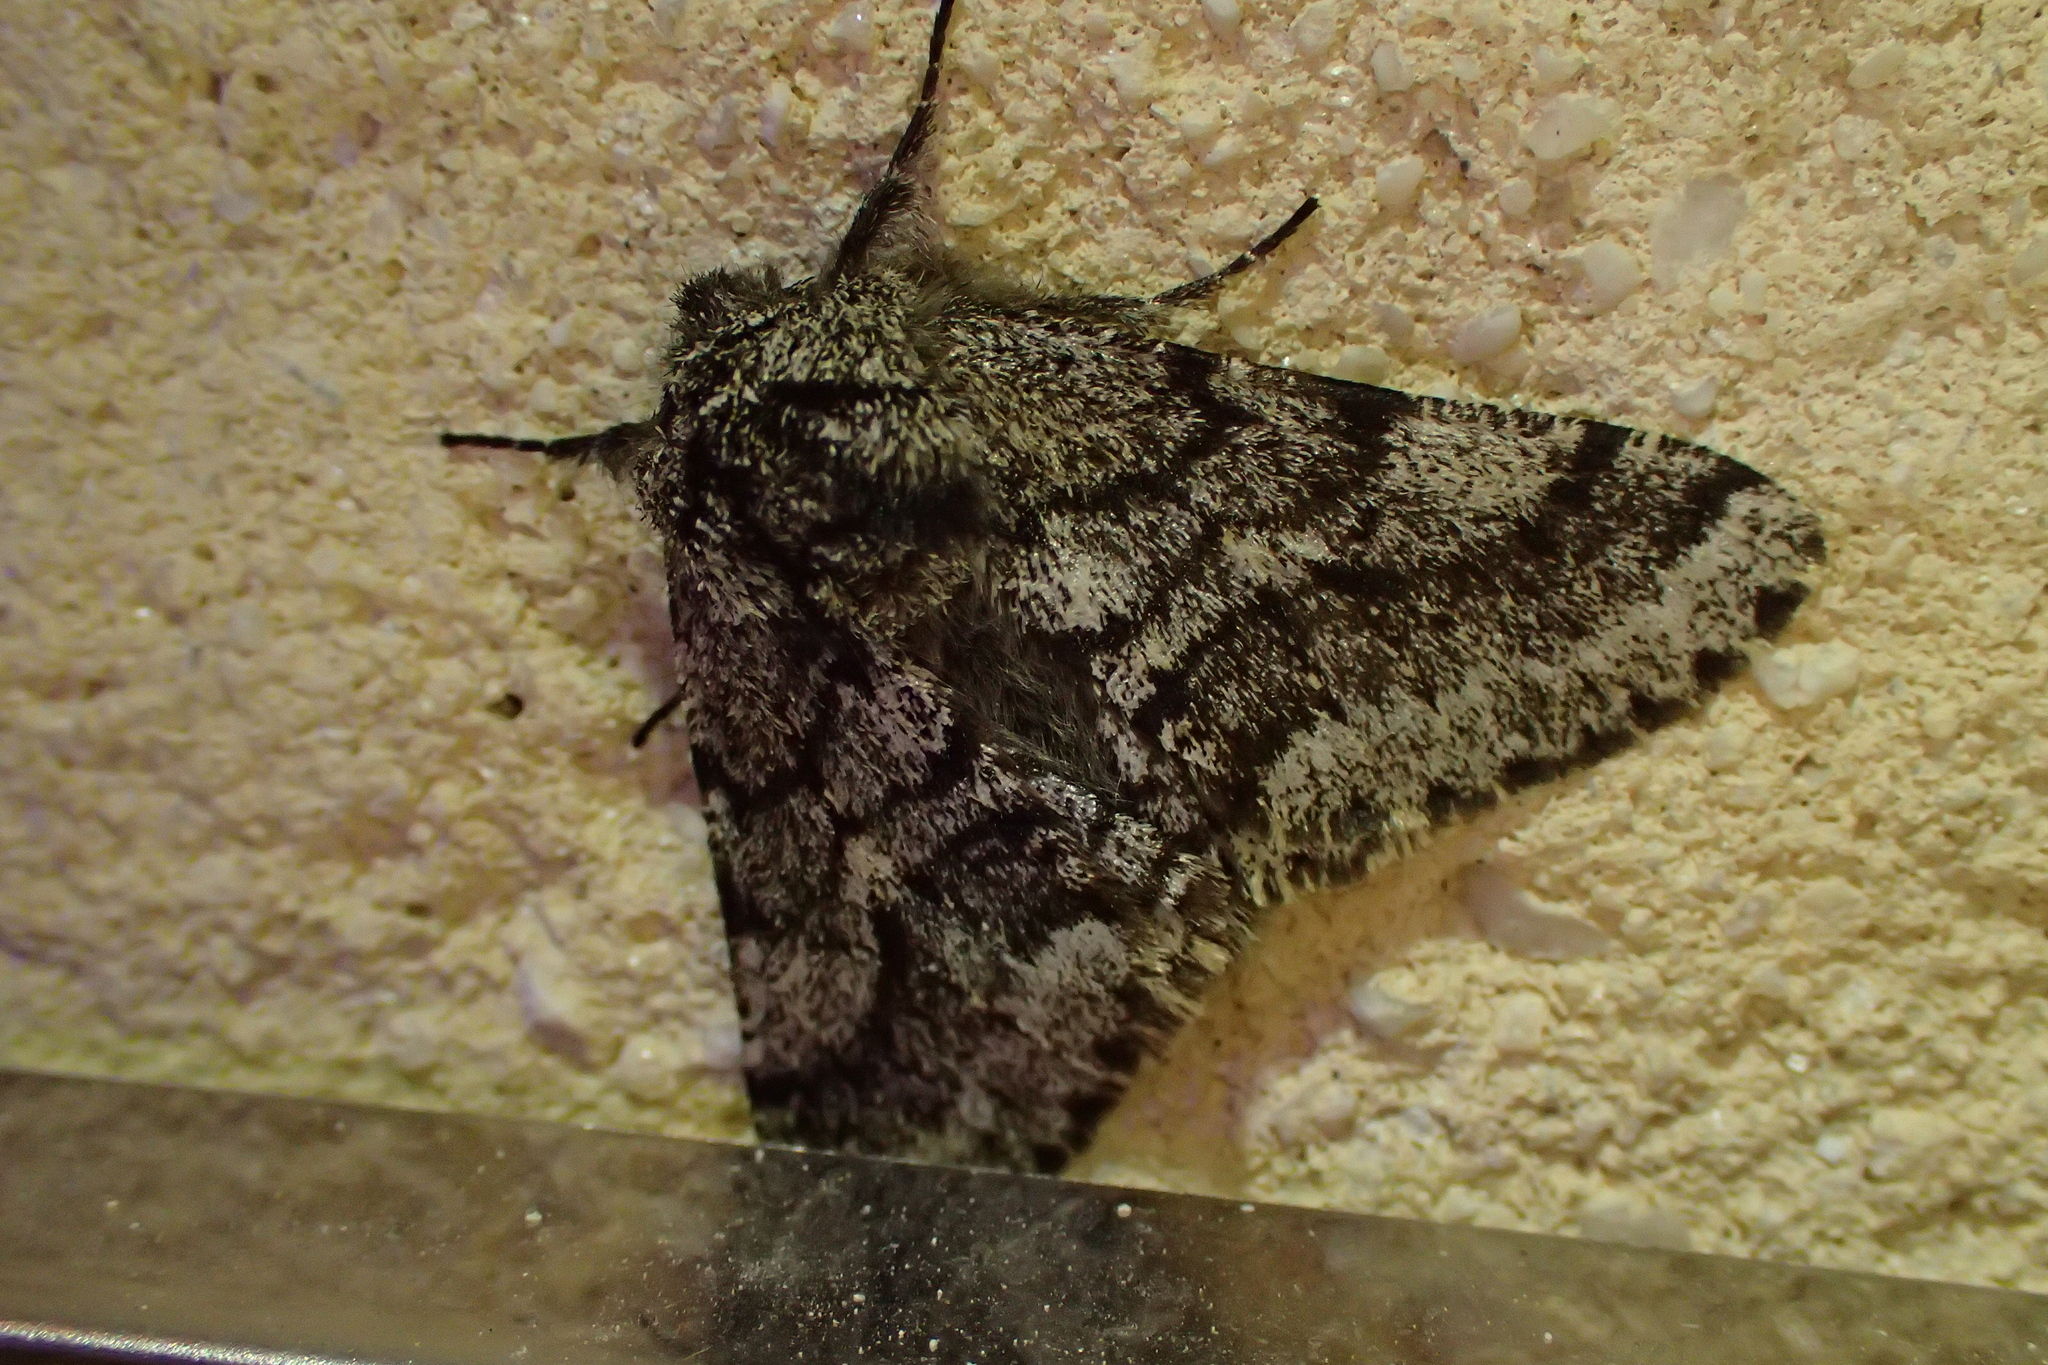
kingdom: Animalia
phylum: Arthropoda
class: Insecta
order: Lepidoptera
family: Geometridae
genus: Lycia
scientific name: Lycia hirtaria
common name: Brindled beauty
